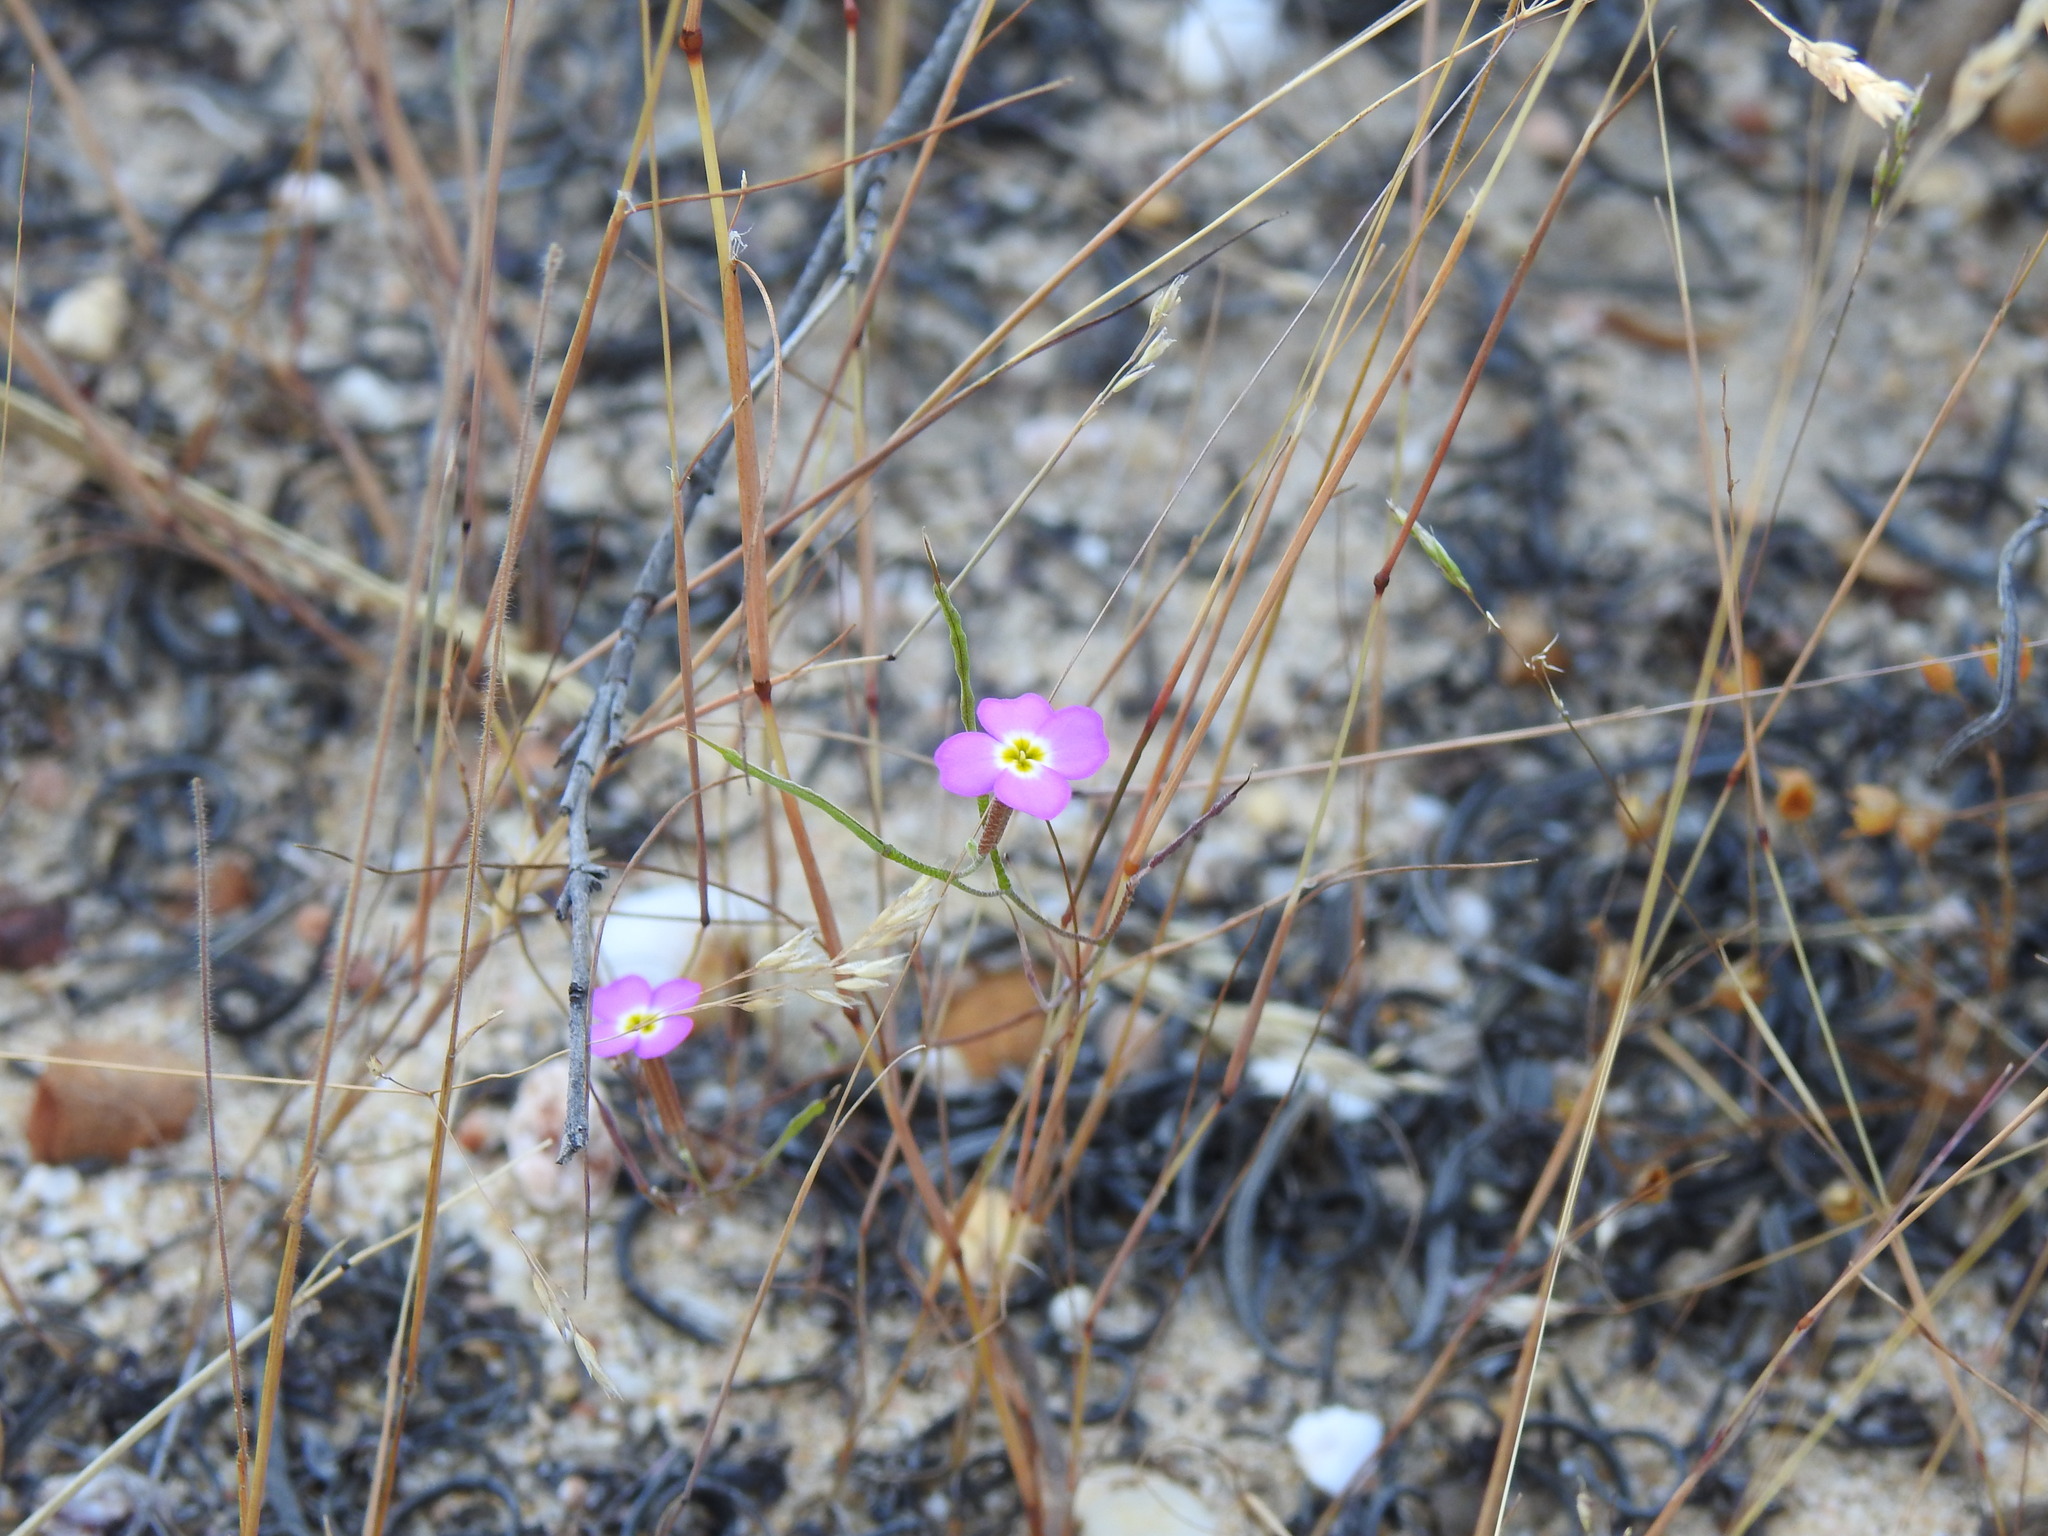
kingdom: Plantae
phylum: Tracheophyta
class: Magnoliopsida
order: Brassicales
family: Brassicaceae
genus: Marcuskochia
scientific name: Marcuskochia triloba
